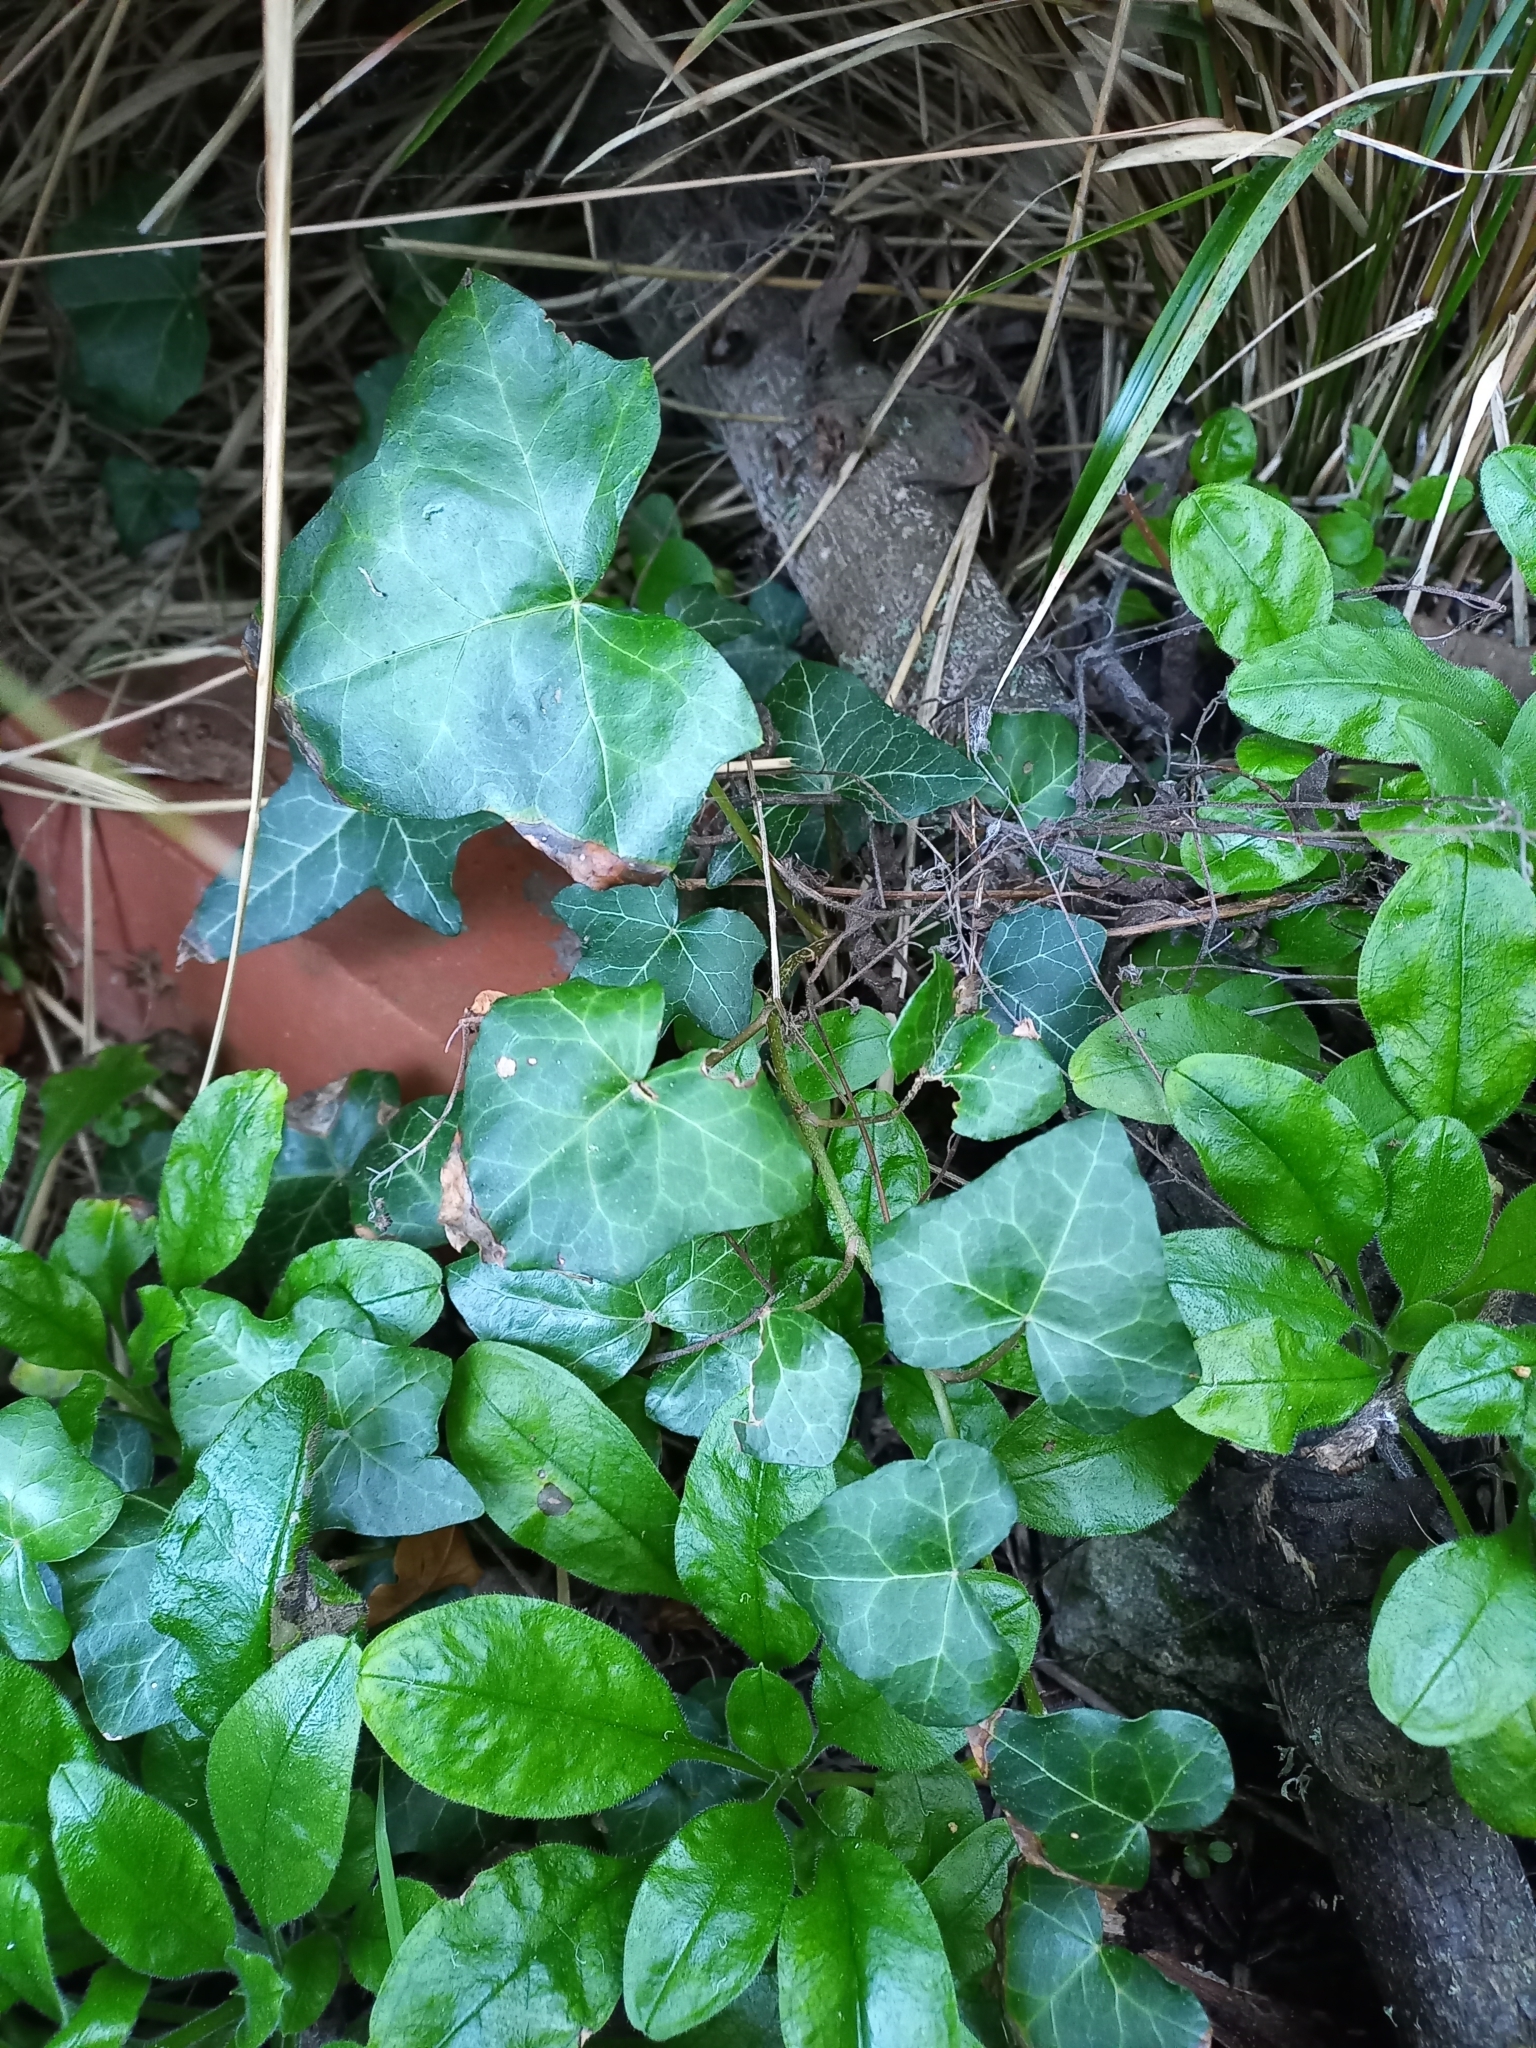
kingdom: Plantae
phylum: Tracheophyta
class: Magnoliopsida
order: Apiales
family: Araliaceae
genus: Hedera
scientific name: Hedera helix
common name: Ivy
